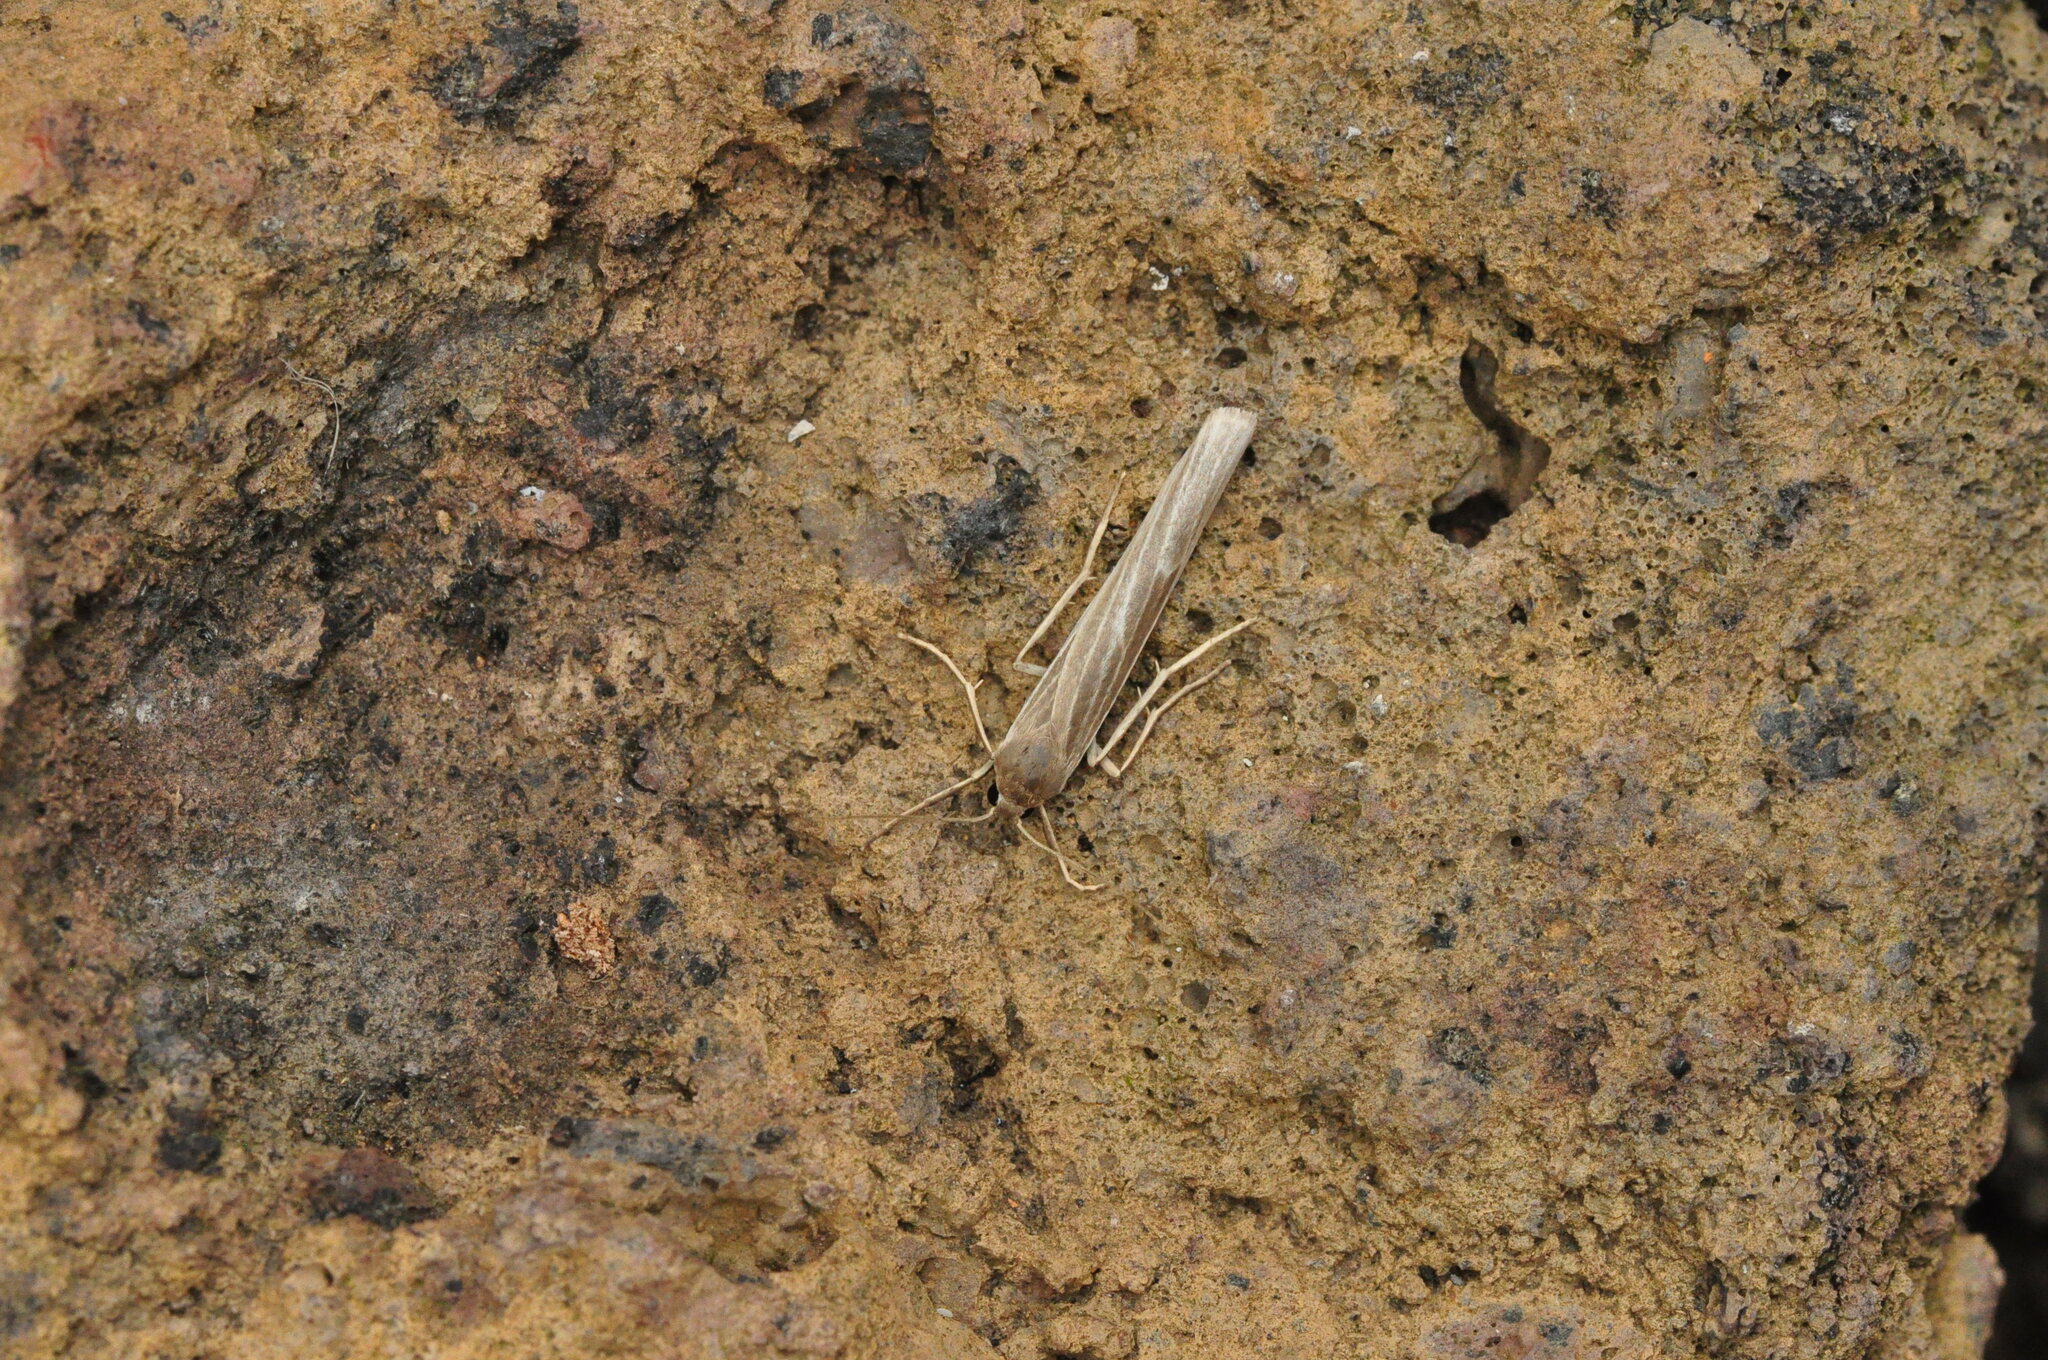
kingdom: Animalia
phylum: Arthropoda
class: Insecta
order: Lepidoptera
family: Erebidae
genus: Indalia
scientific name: Indalia albicosta
